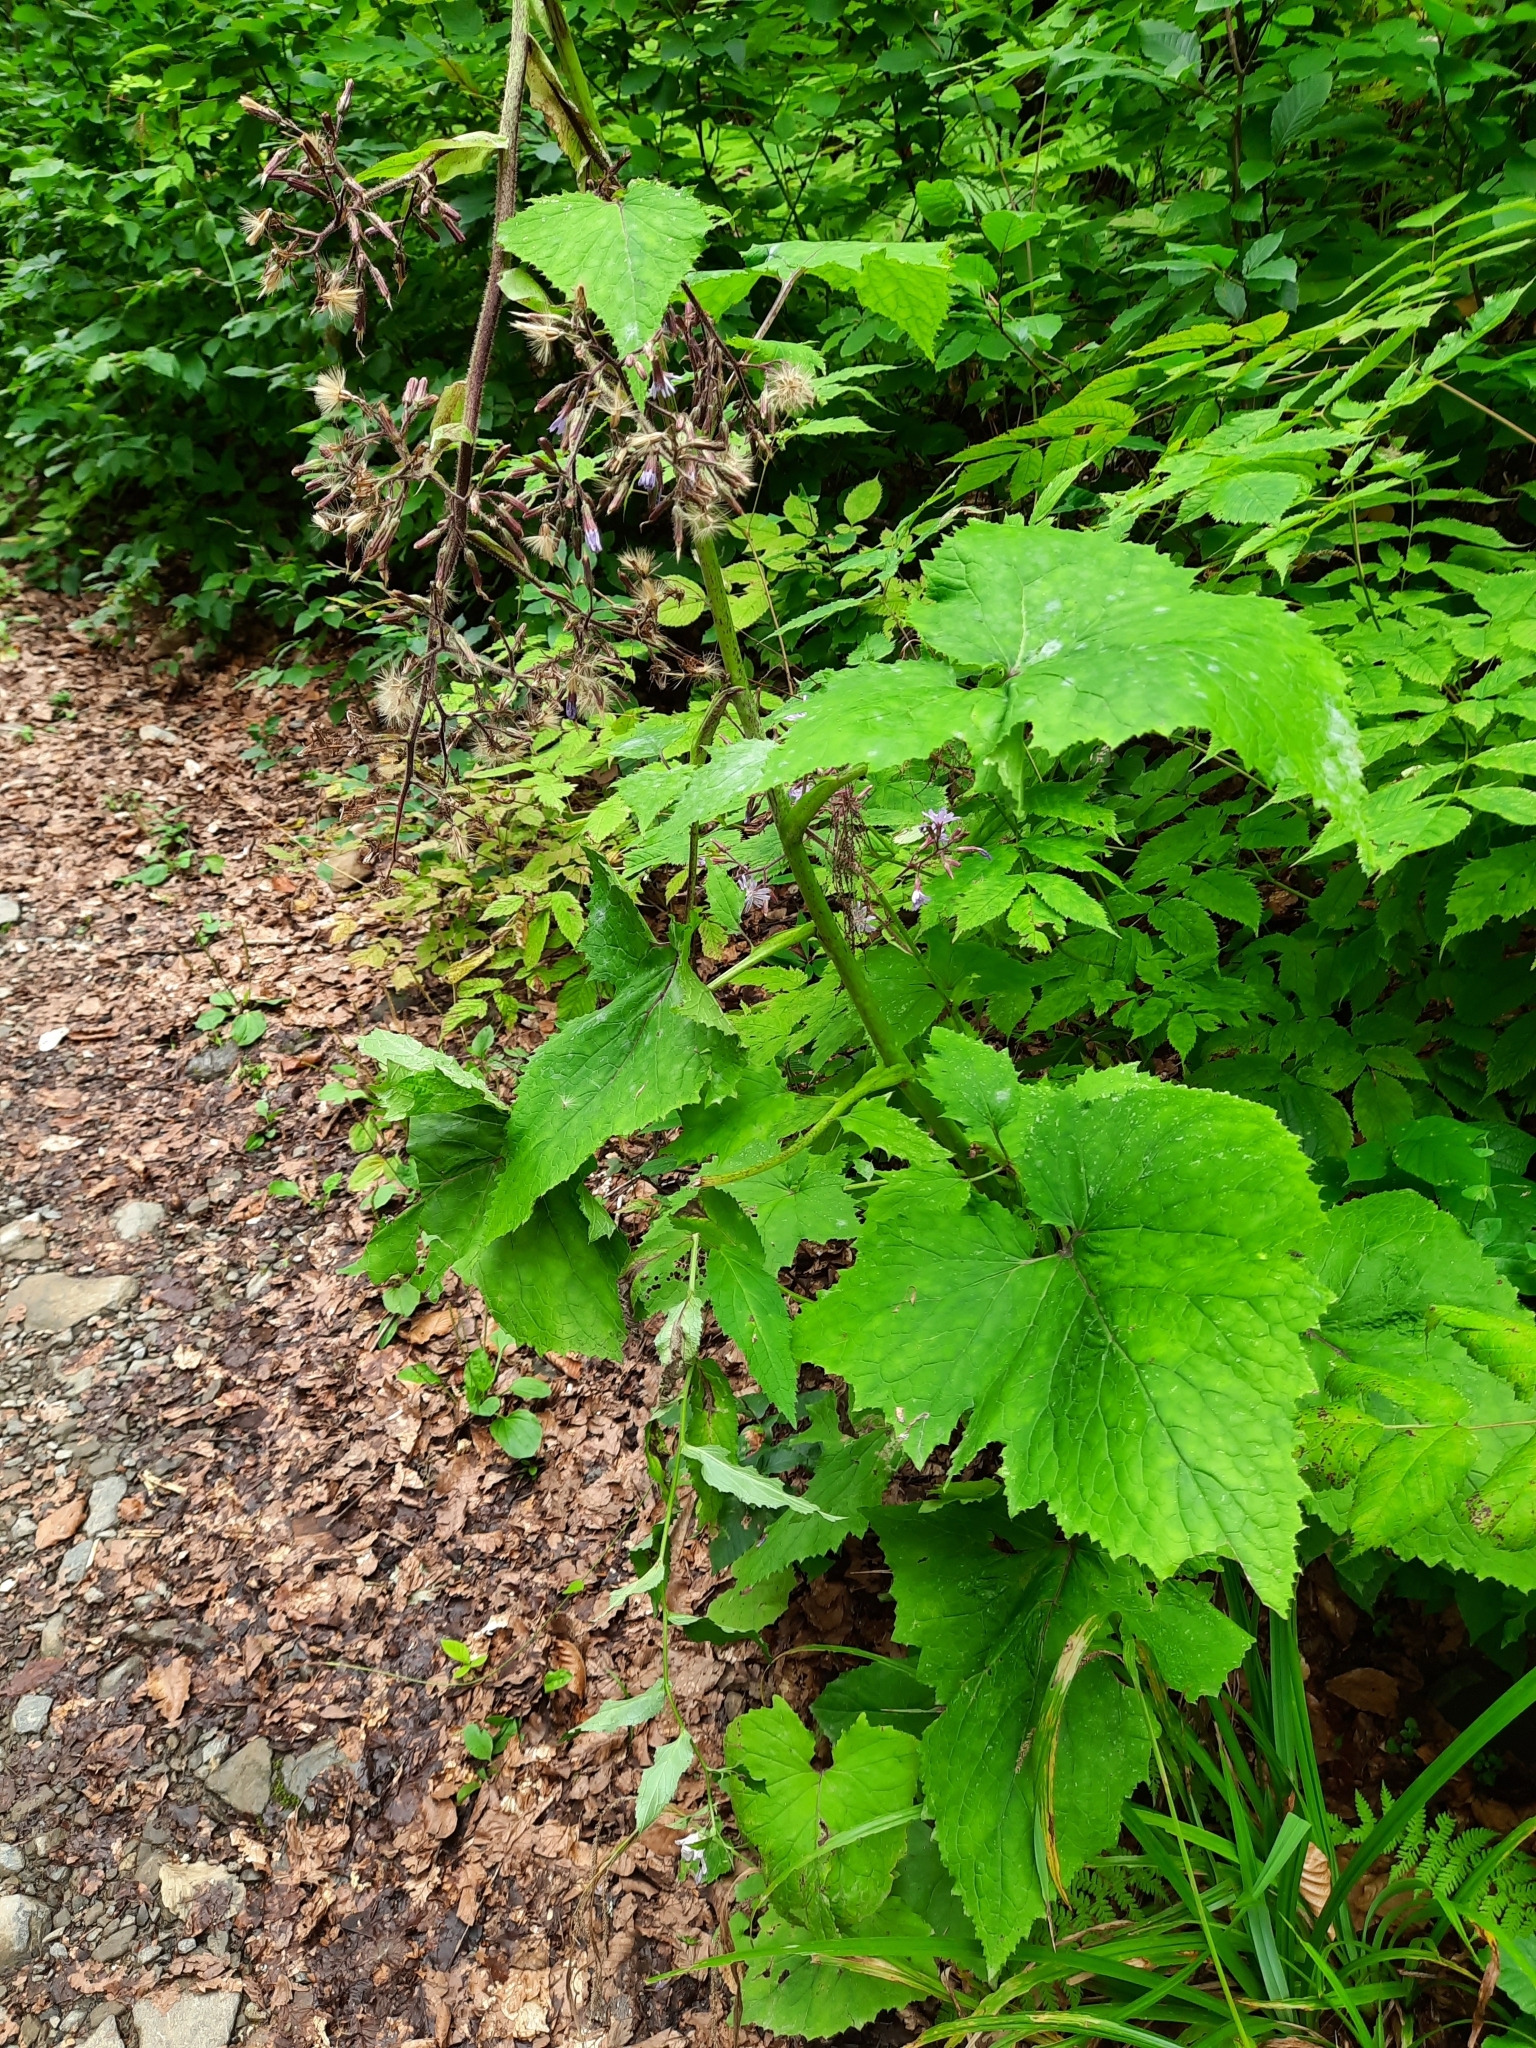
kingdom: Plantae
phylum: Tracheophyta
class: Magnoliopsida
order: Asterales
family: Asteraceae
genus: Cicerbita
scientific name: Cicerbita petiolata
